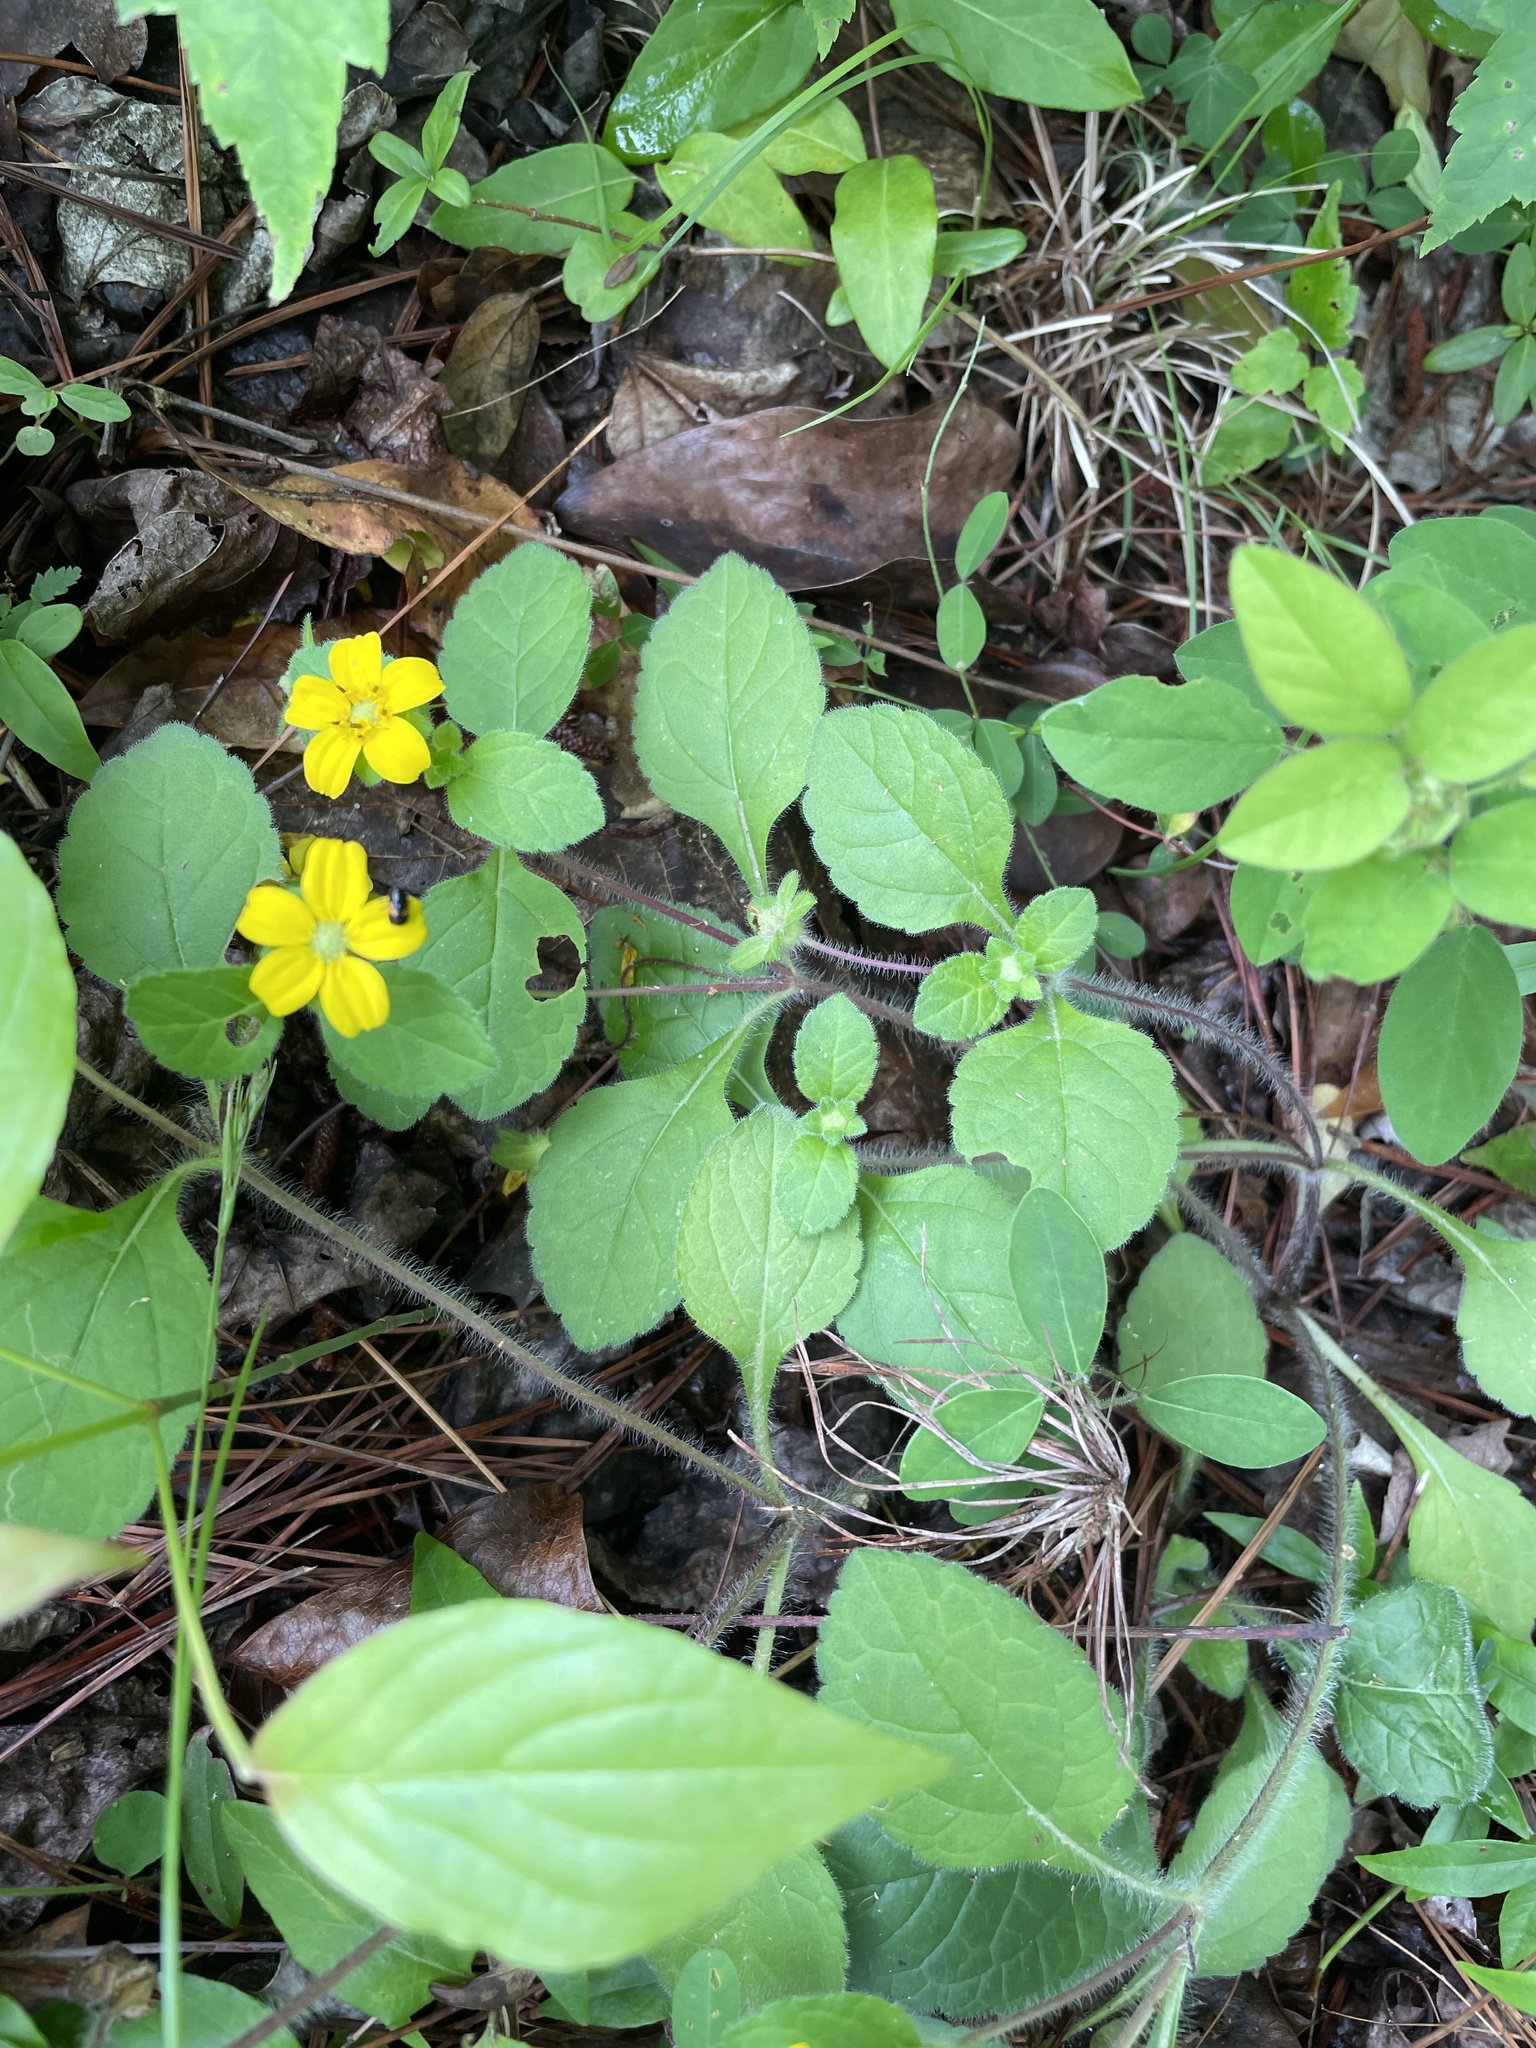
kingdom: Plantae
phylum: Tracheophyta
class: Magnoliopsida
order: Asterales
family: Asteraceae
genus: Chrysogonum
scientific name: Chrysogonum virginianum
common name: Golden-knee
